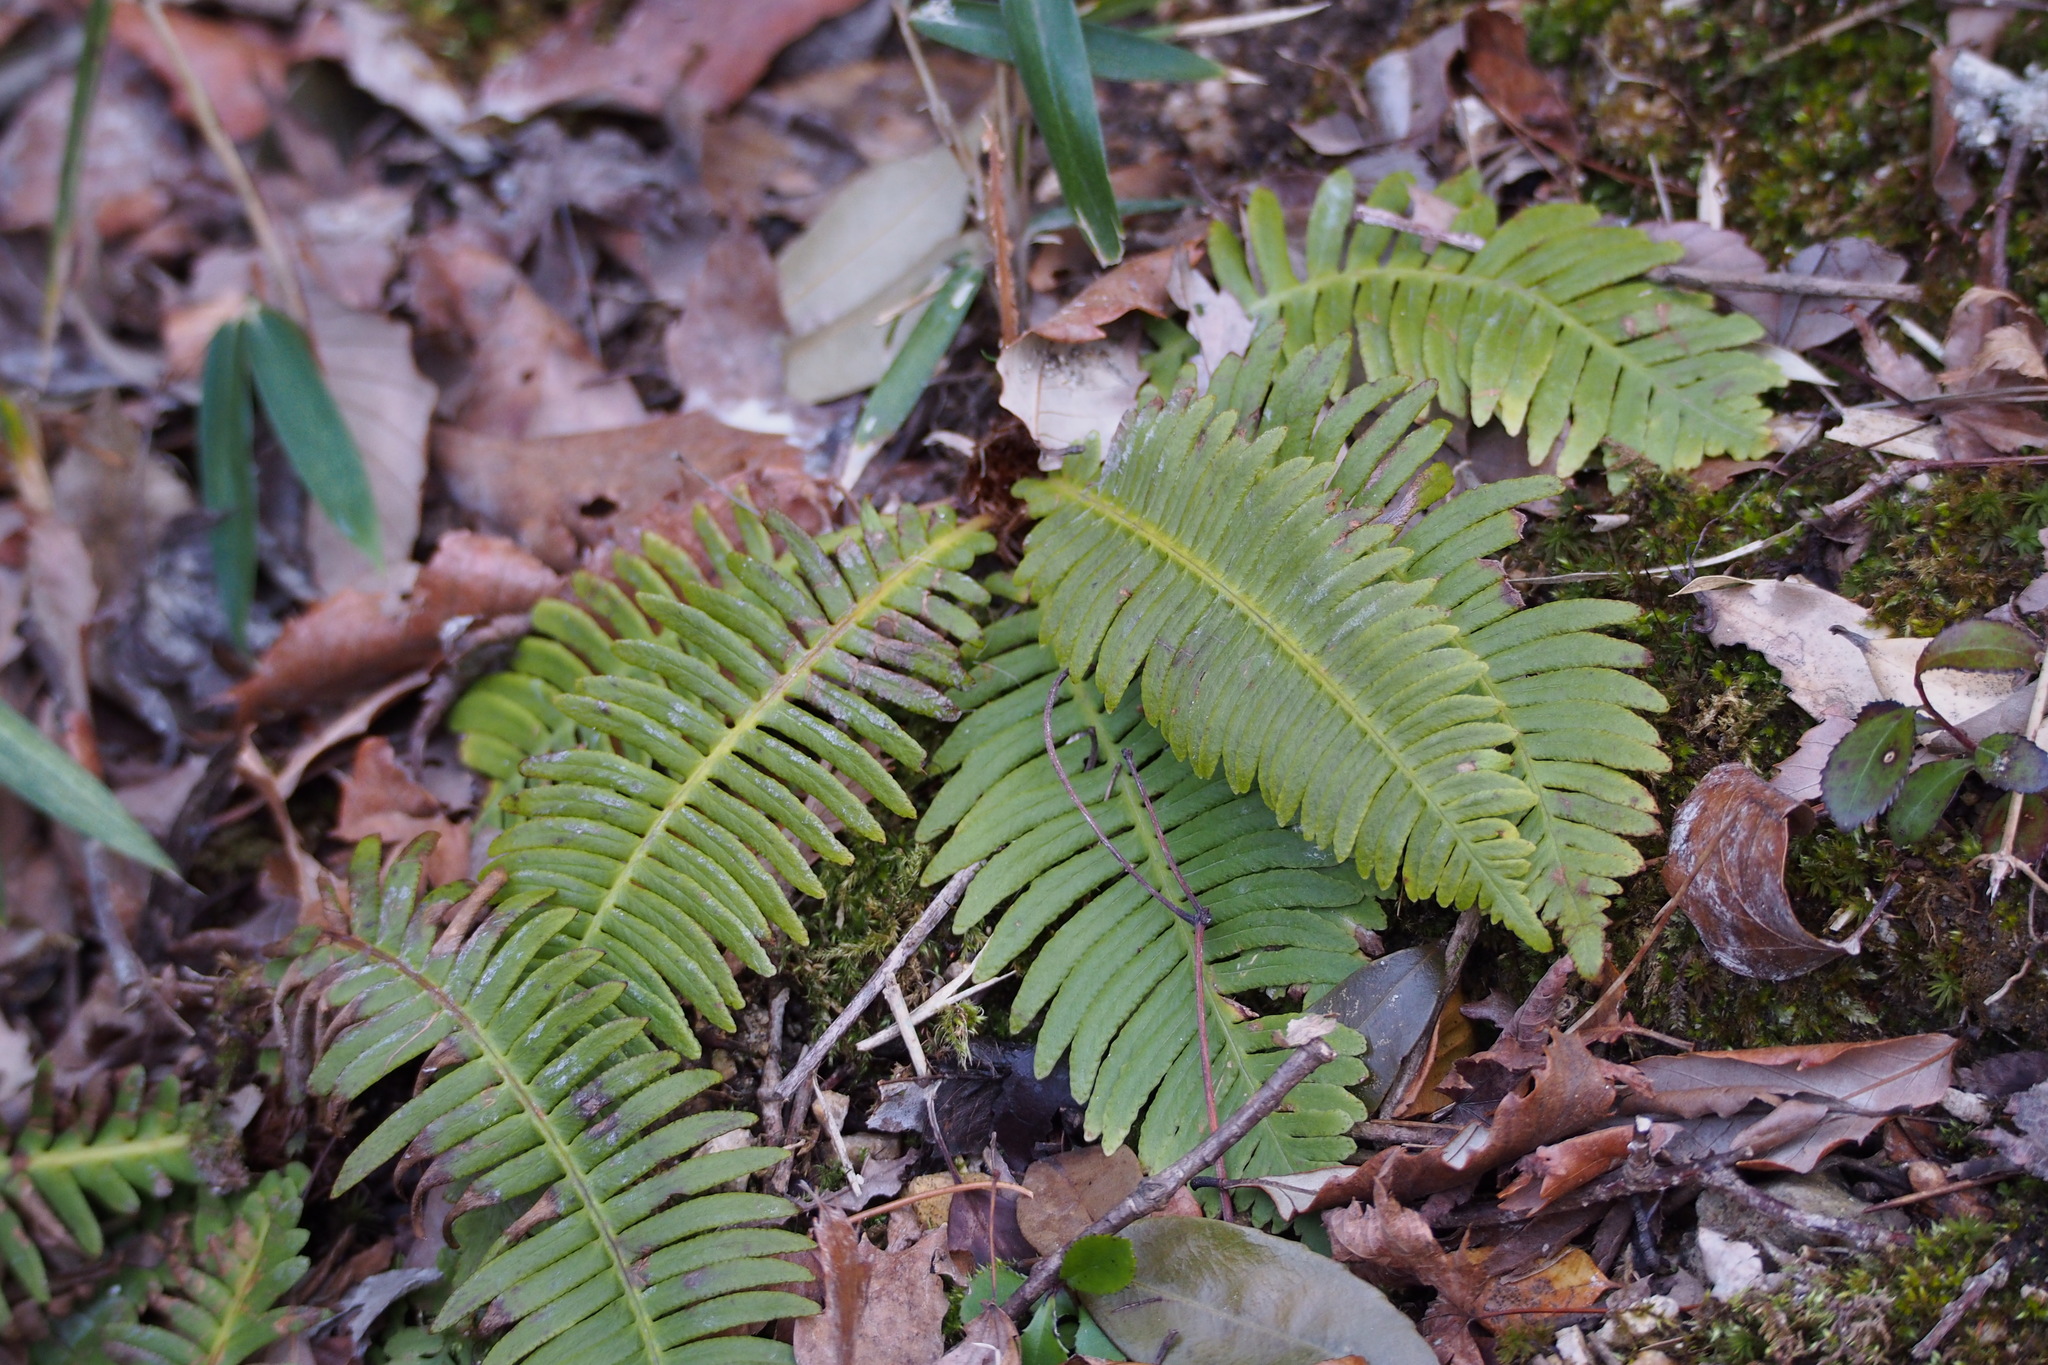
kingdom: Plantae
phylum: Tracheophyta
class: Polypodiopsida
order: Polypodiales
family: Blechnaceae
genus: Spicantopsis
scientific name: Spicantopsis niponica
